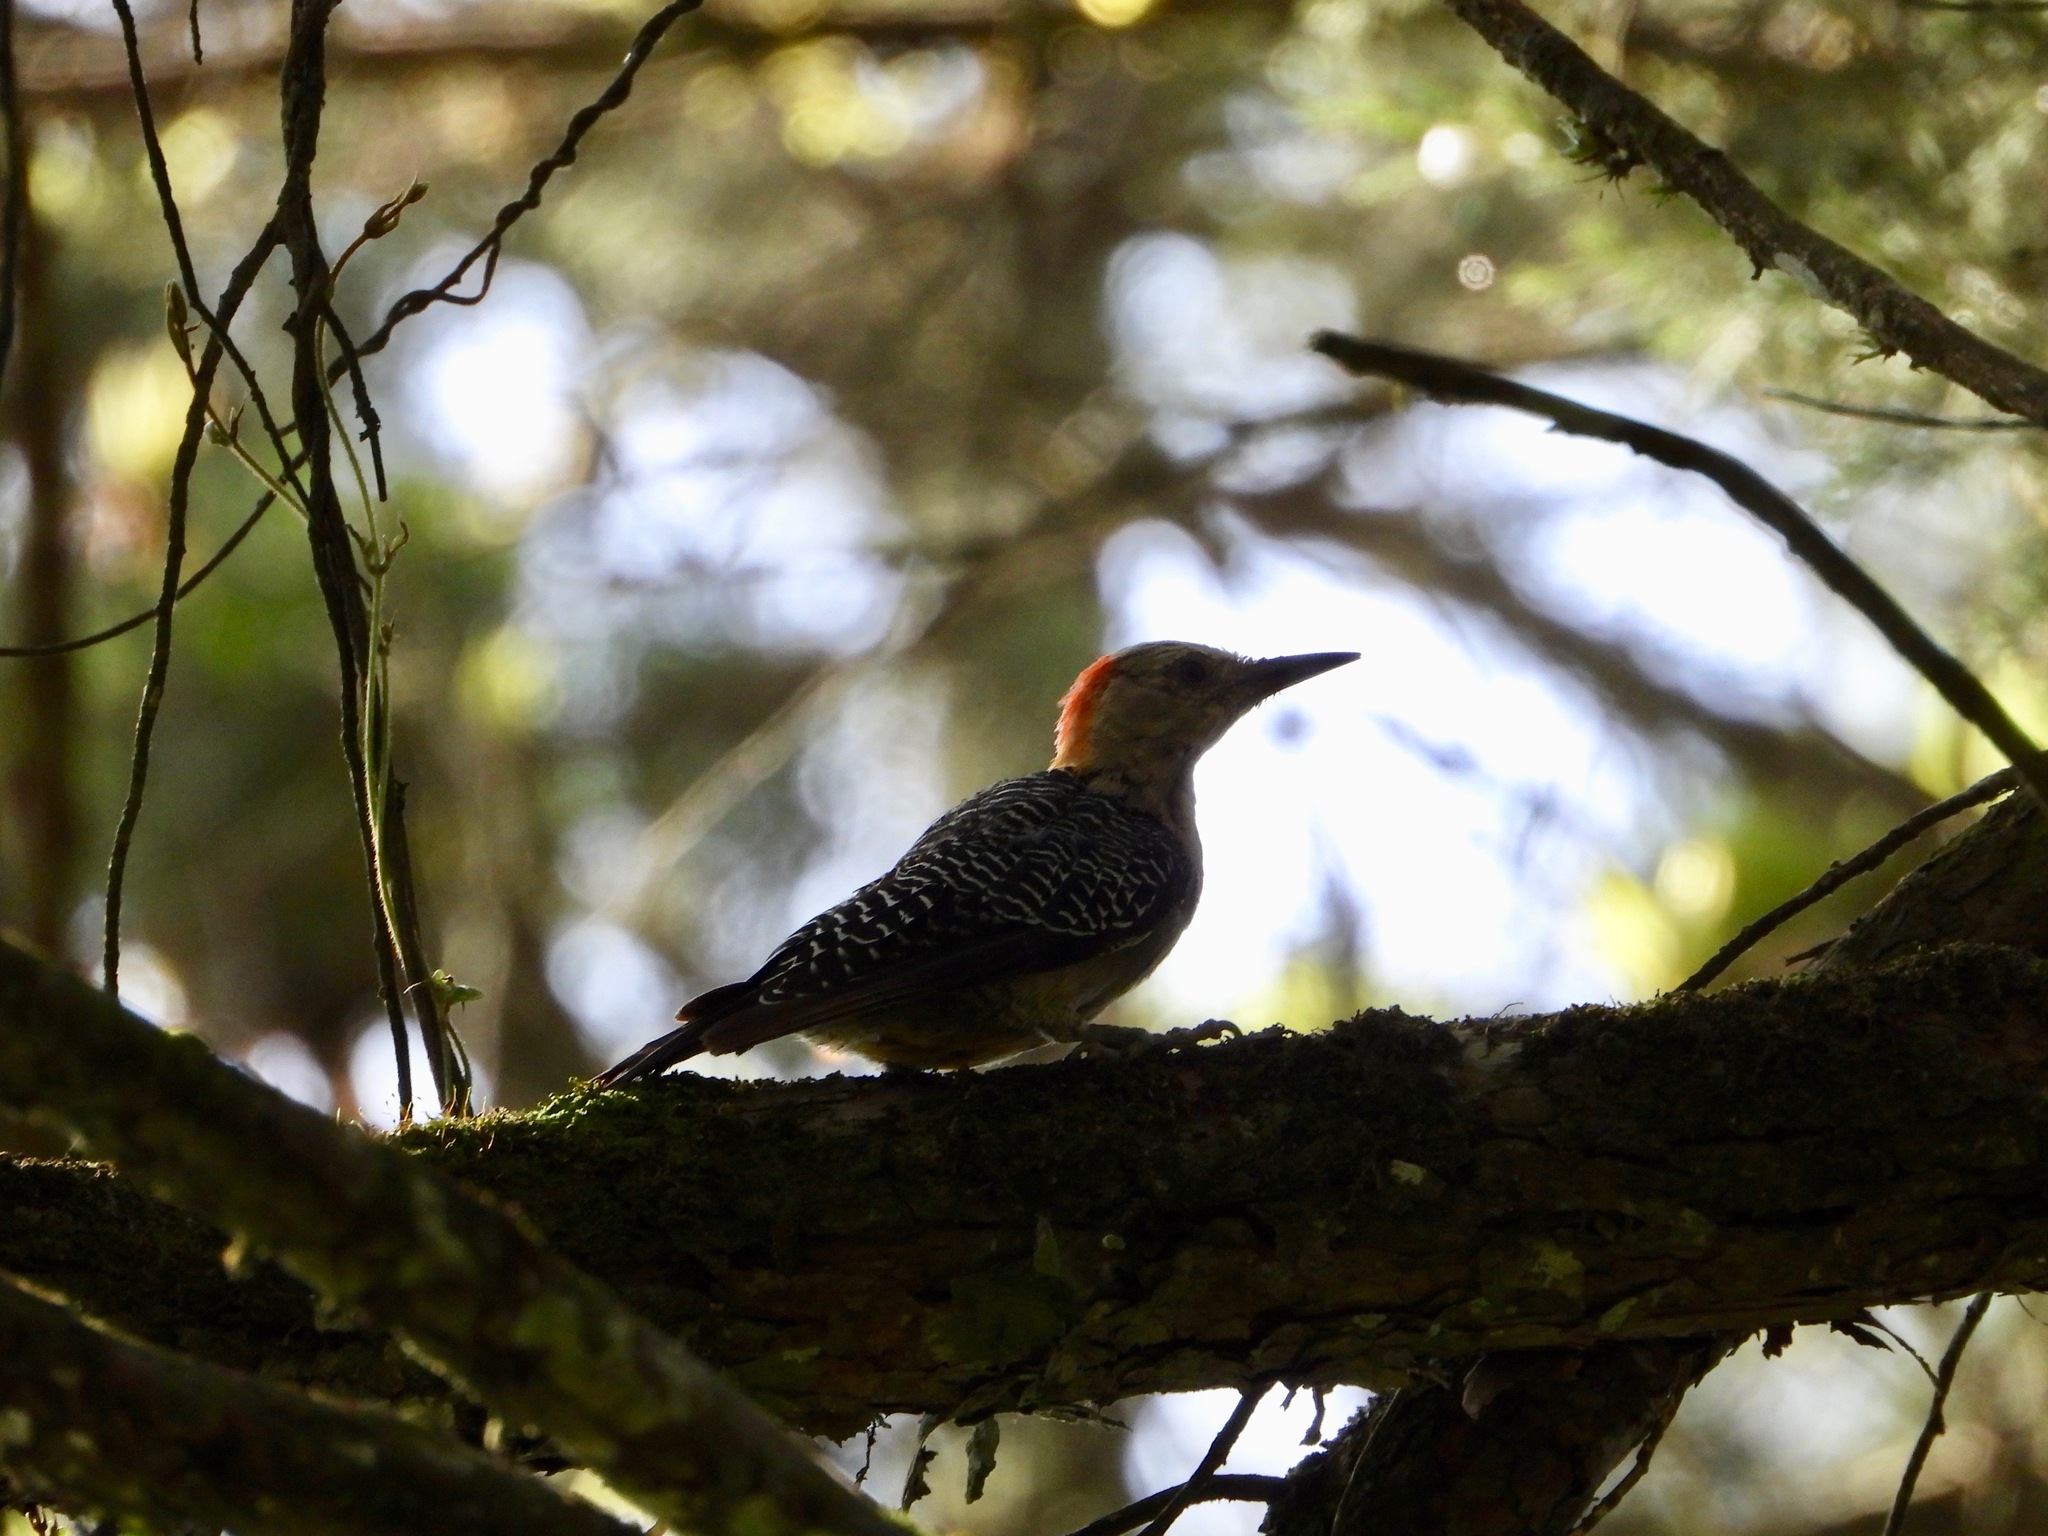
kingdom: Animalia
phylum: Chordata
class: Aves
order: Piciformes
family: Picidae
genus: Melanerpes
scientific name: Melanerpes aurifrons
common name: Golden-fronted woodpecker
